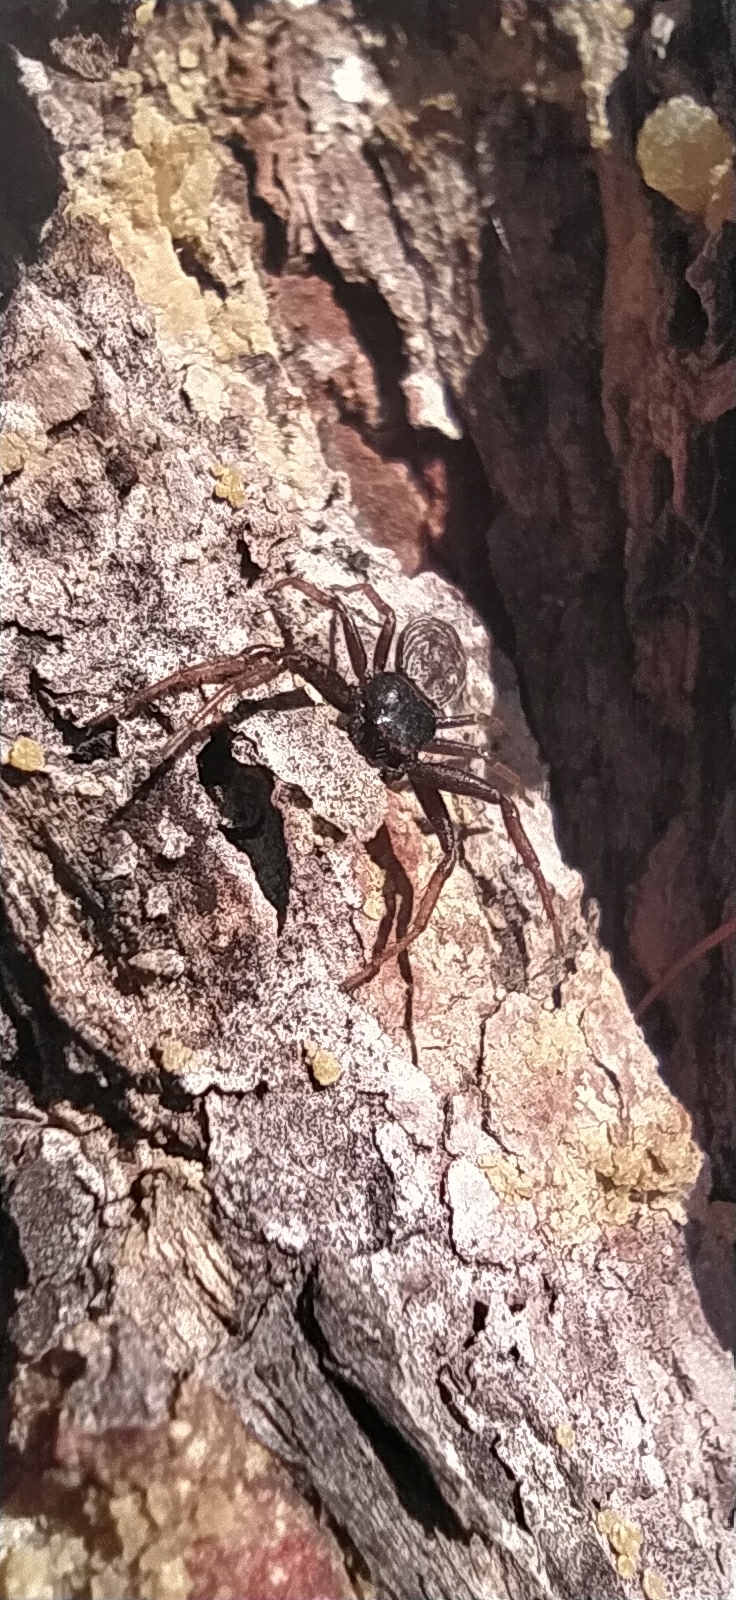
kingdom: Animalia
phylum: Arthropoda
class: Arachnida
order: Araneae
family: Thomisidae
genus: Coriarachne
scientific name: Coriarachne depressa
